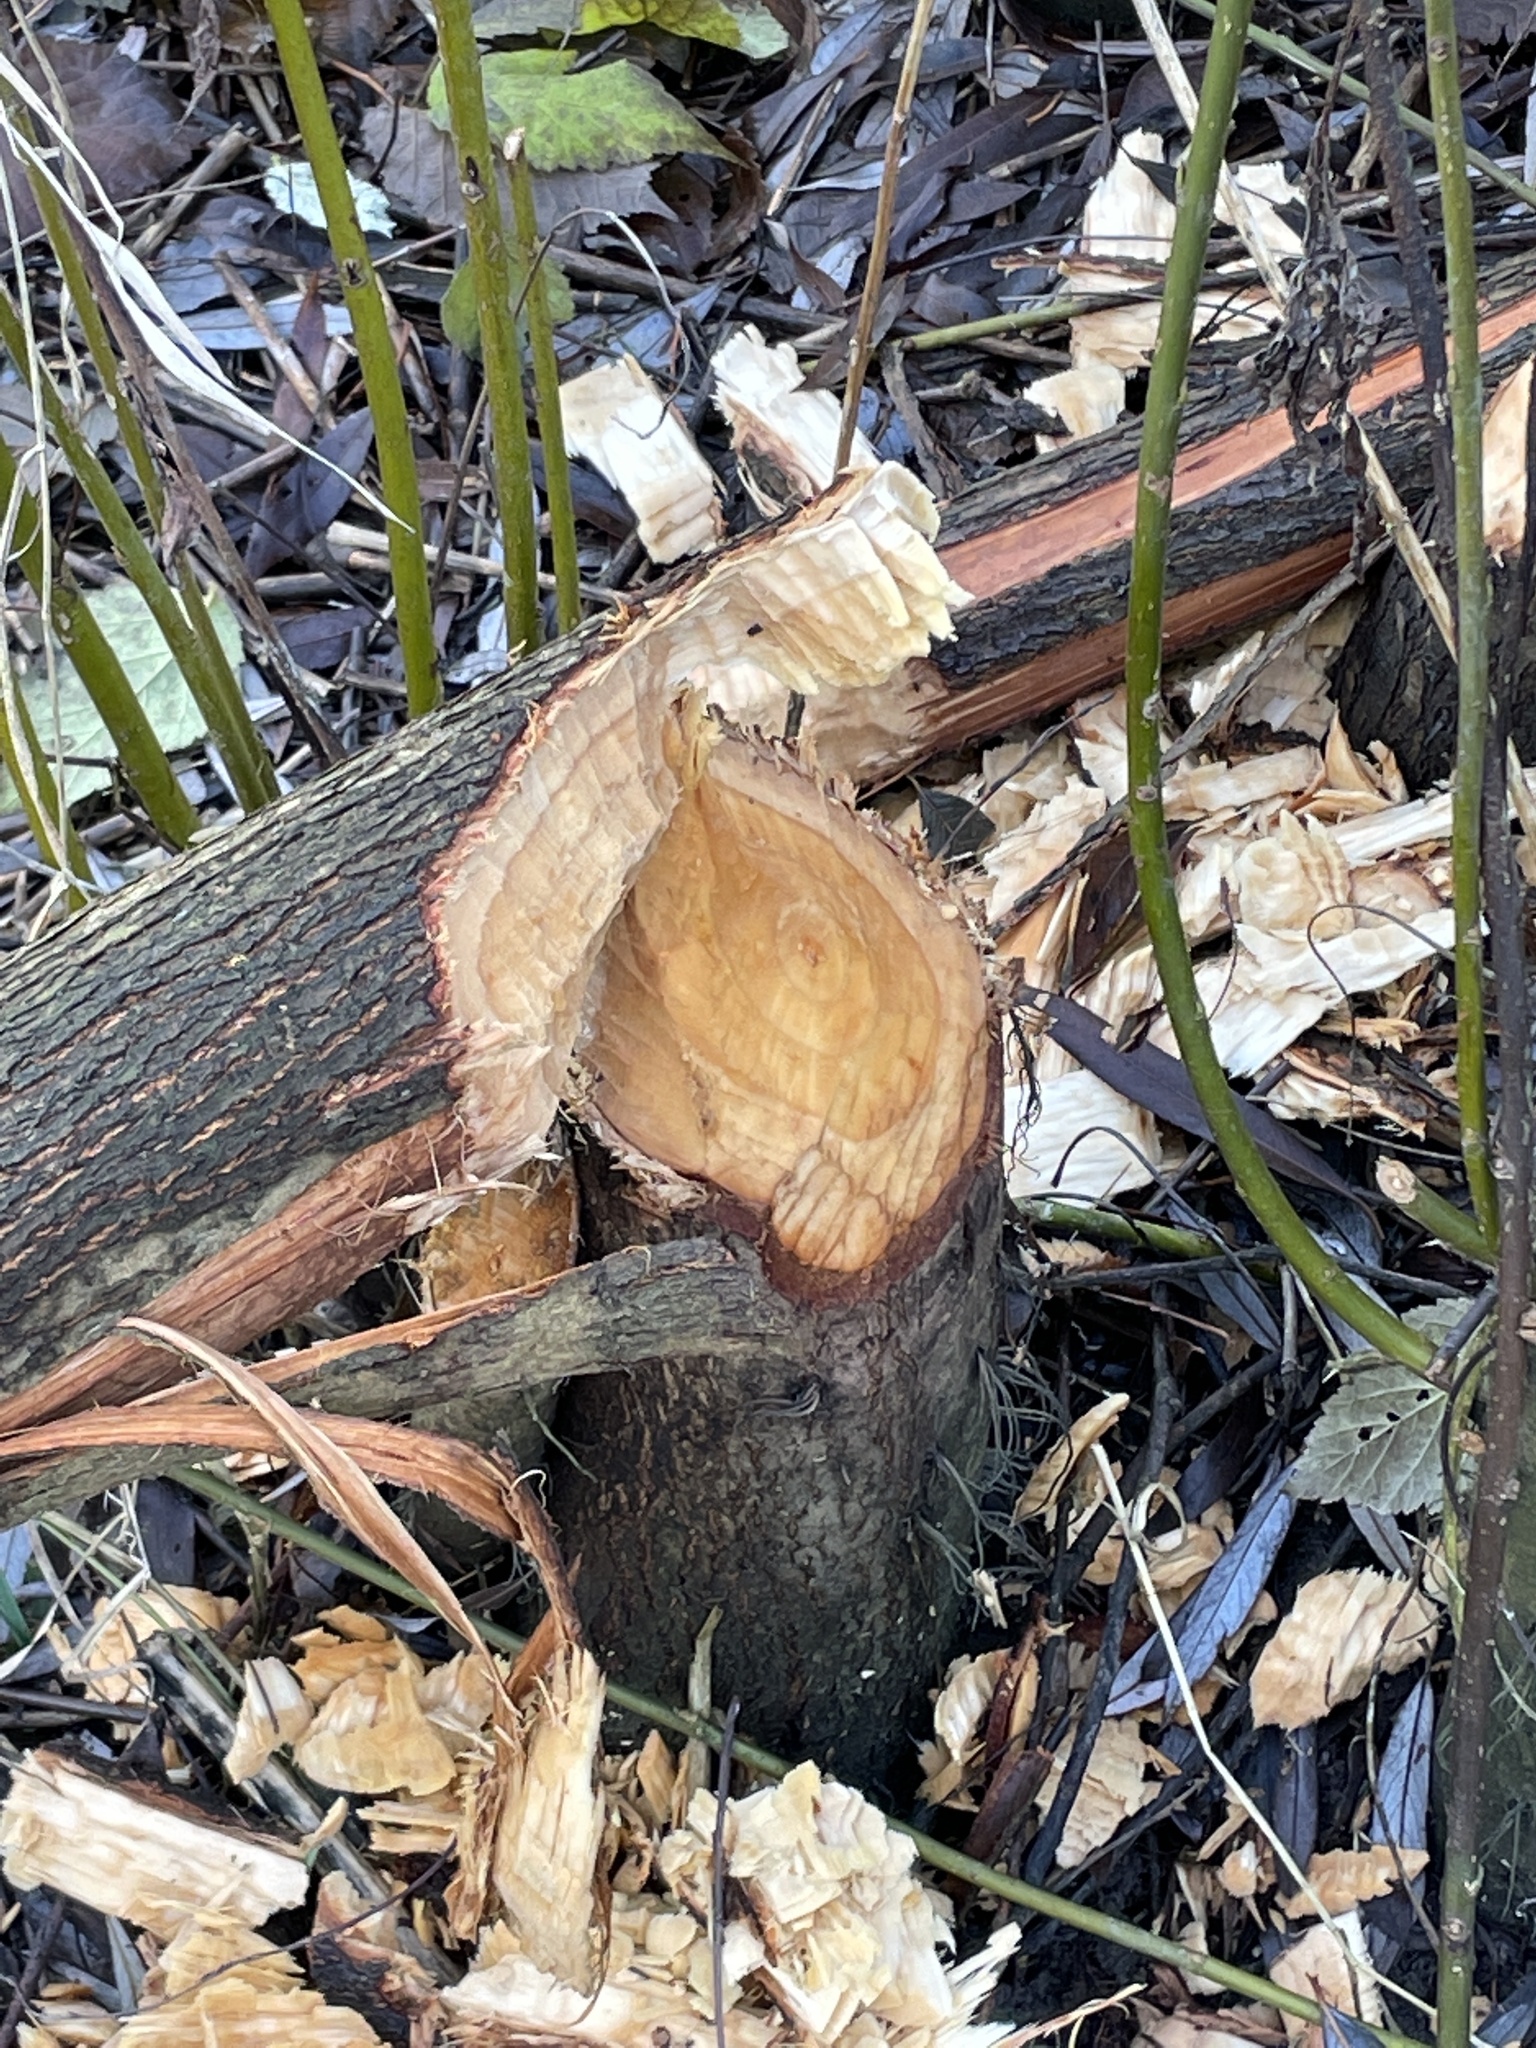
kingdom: Animalia
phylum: Chordata
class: Mammalia
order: Rodentia
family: Castoridae
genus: Castor
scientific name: Castor fiber
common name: Eurasian beaver
